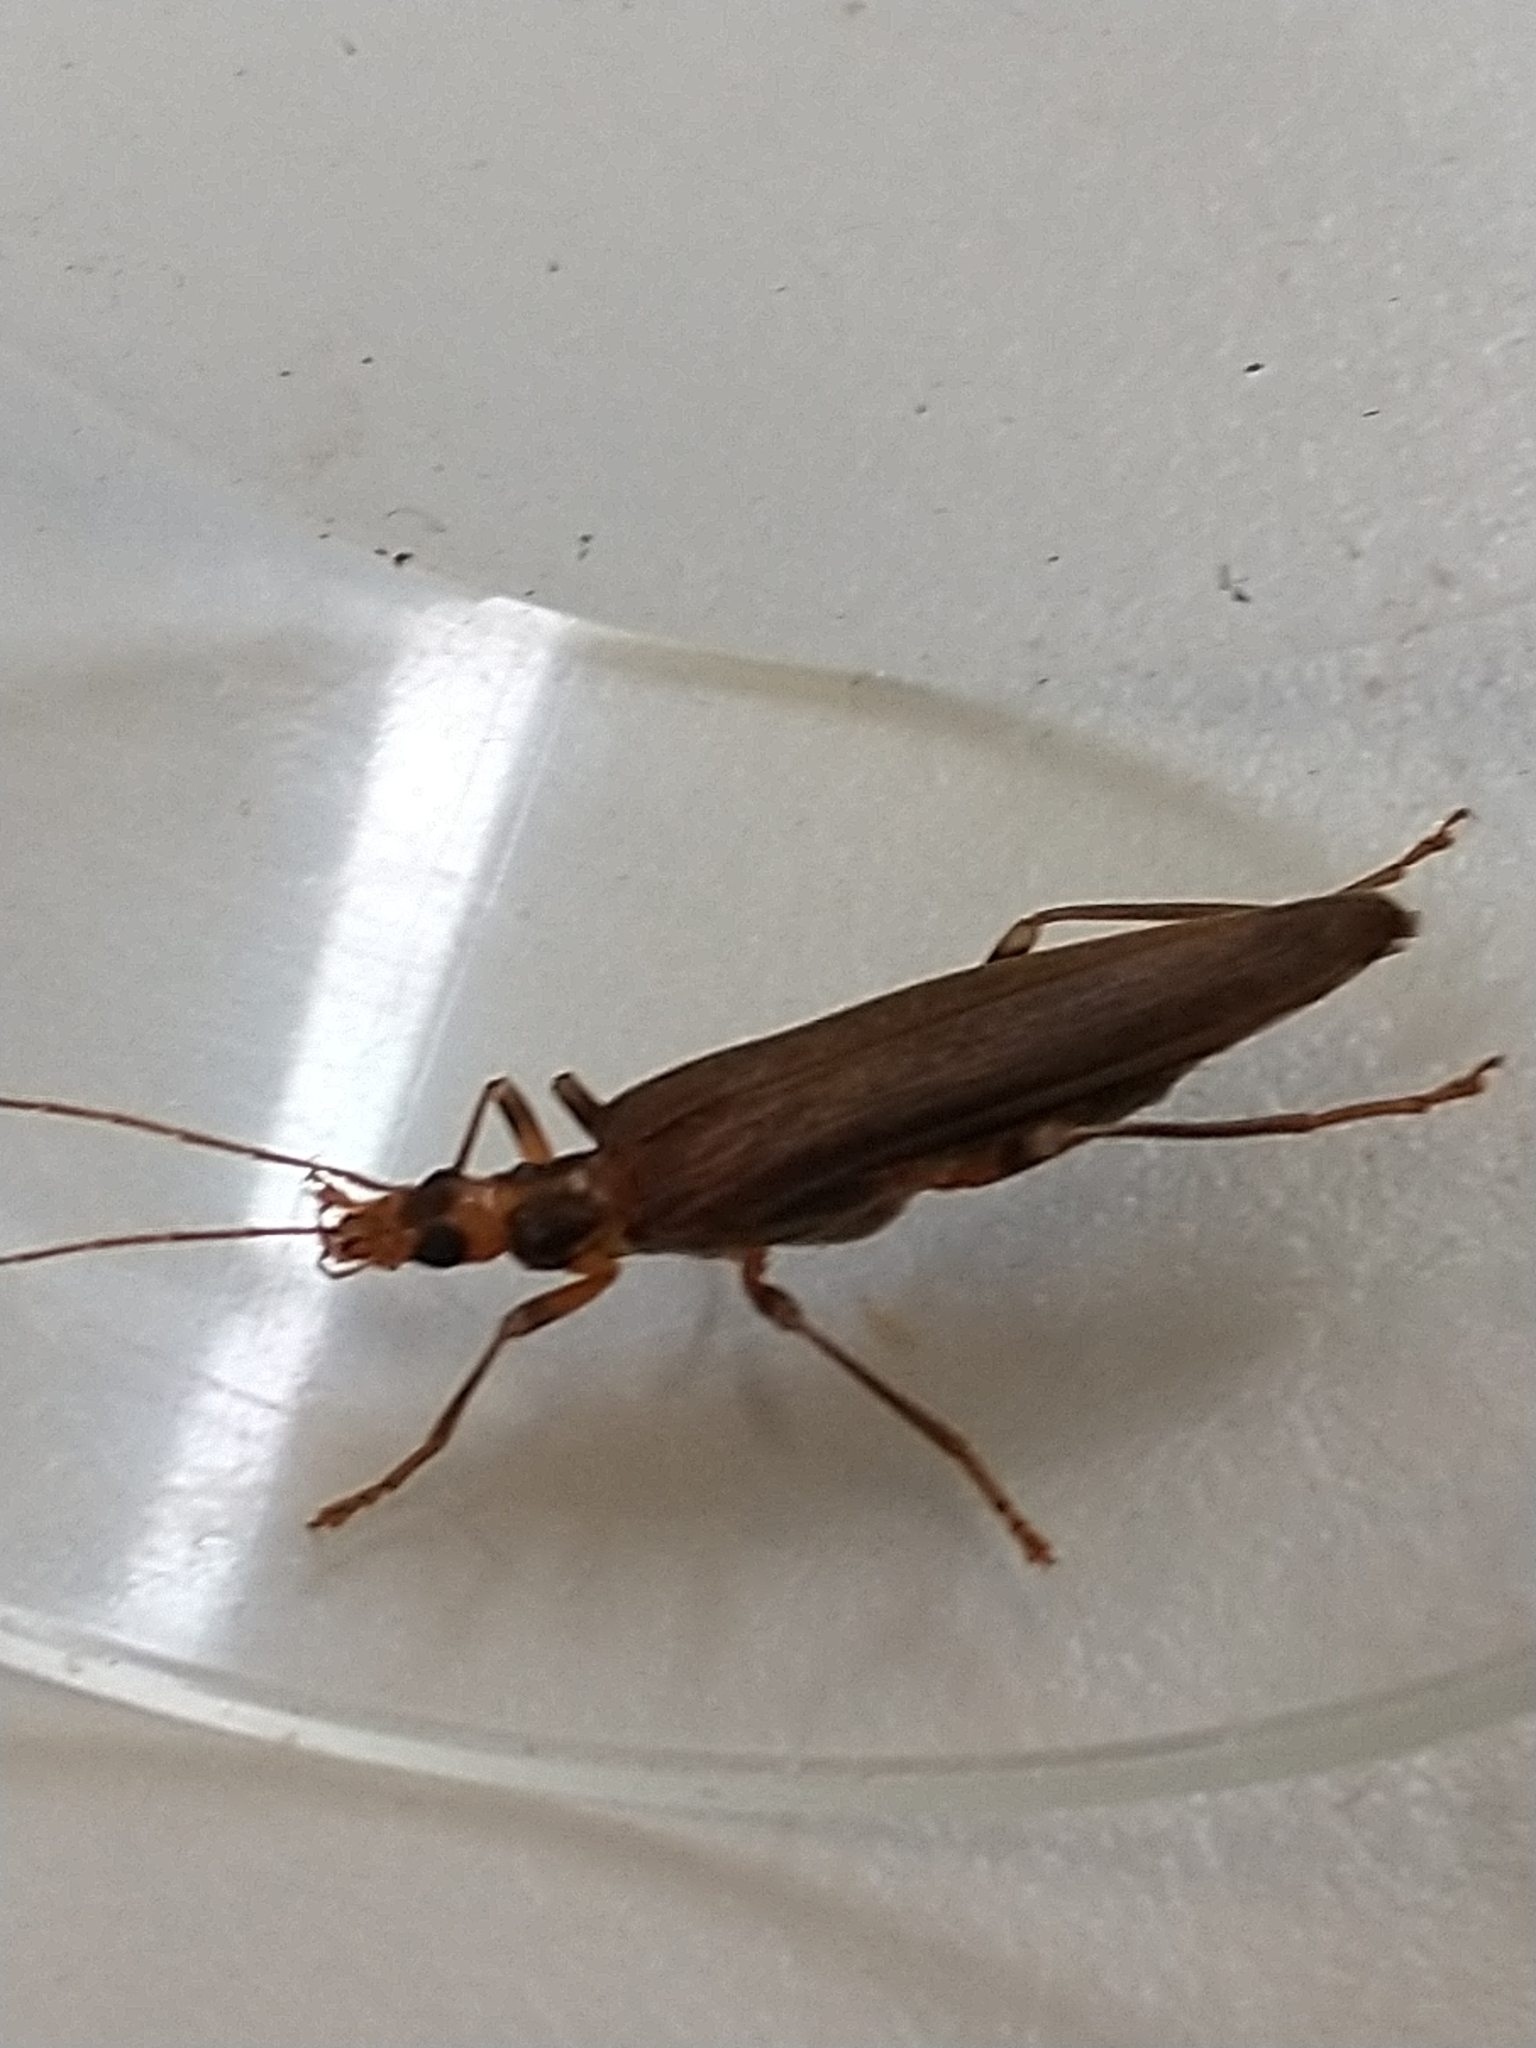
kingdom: Animalia
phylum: Arthropoda
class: Insecta
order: Coleoptera
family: Oedemeridae
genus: Oedemera
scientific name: Oedemera femoralis
